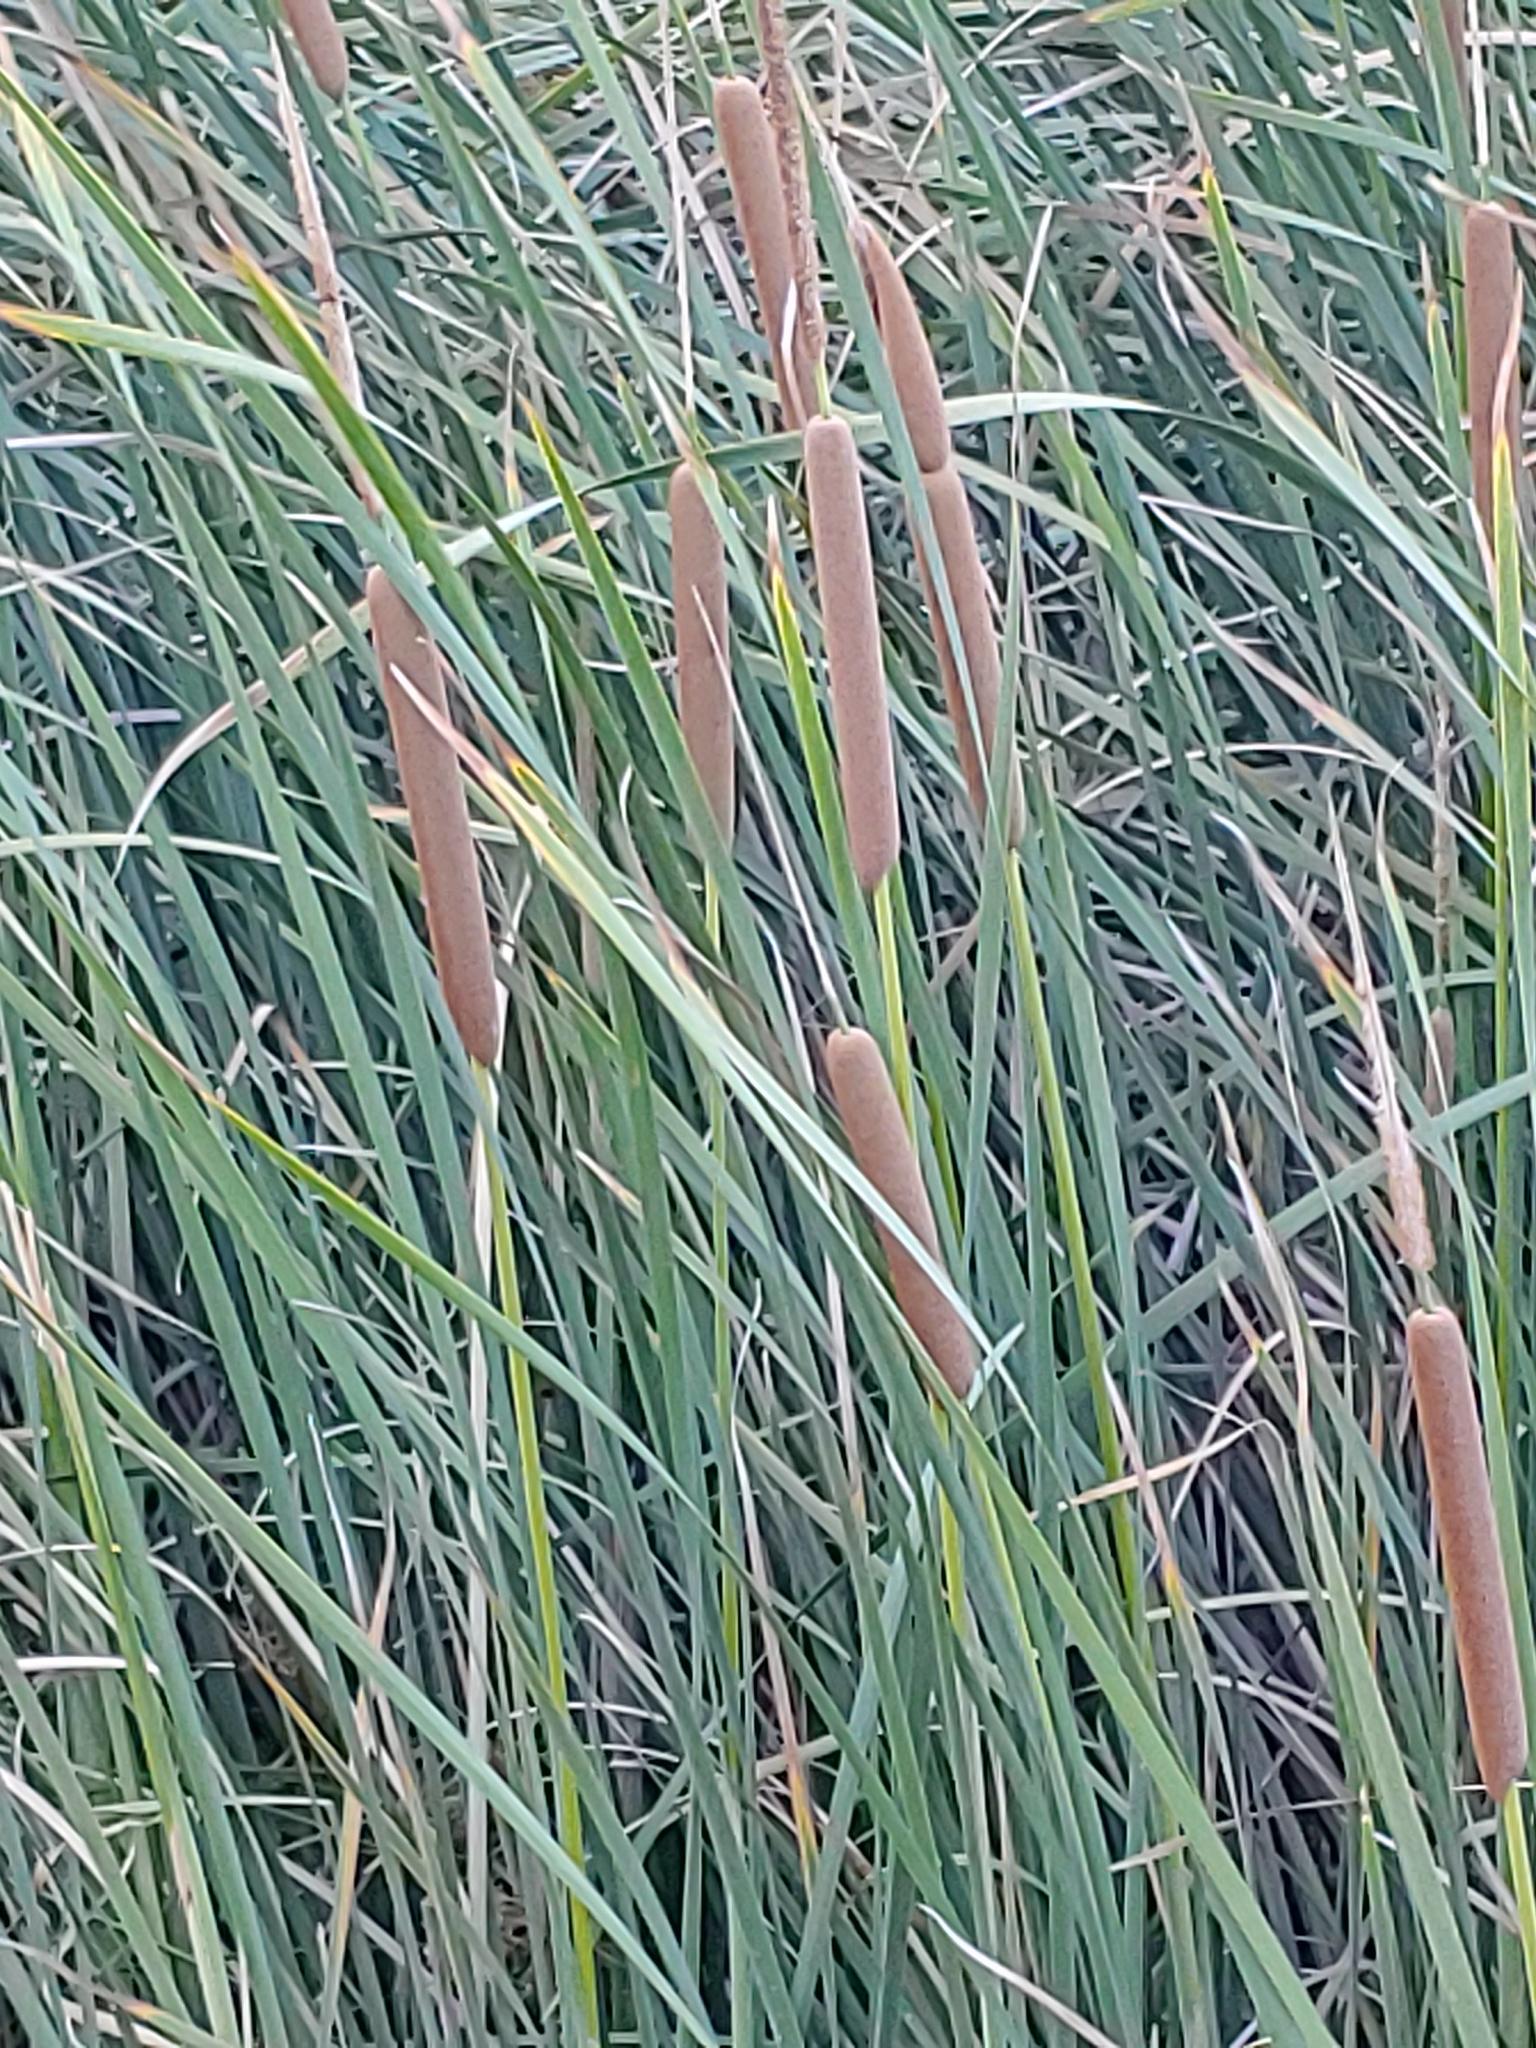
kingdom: Plantae
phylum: Tracheophyta
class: Liliopsida
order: Poales
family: Typhaceae
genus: Typha
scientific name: Typha domingensis
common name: Southern cattail
